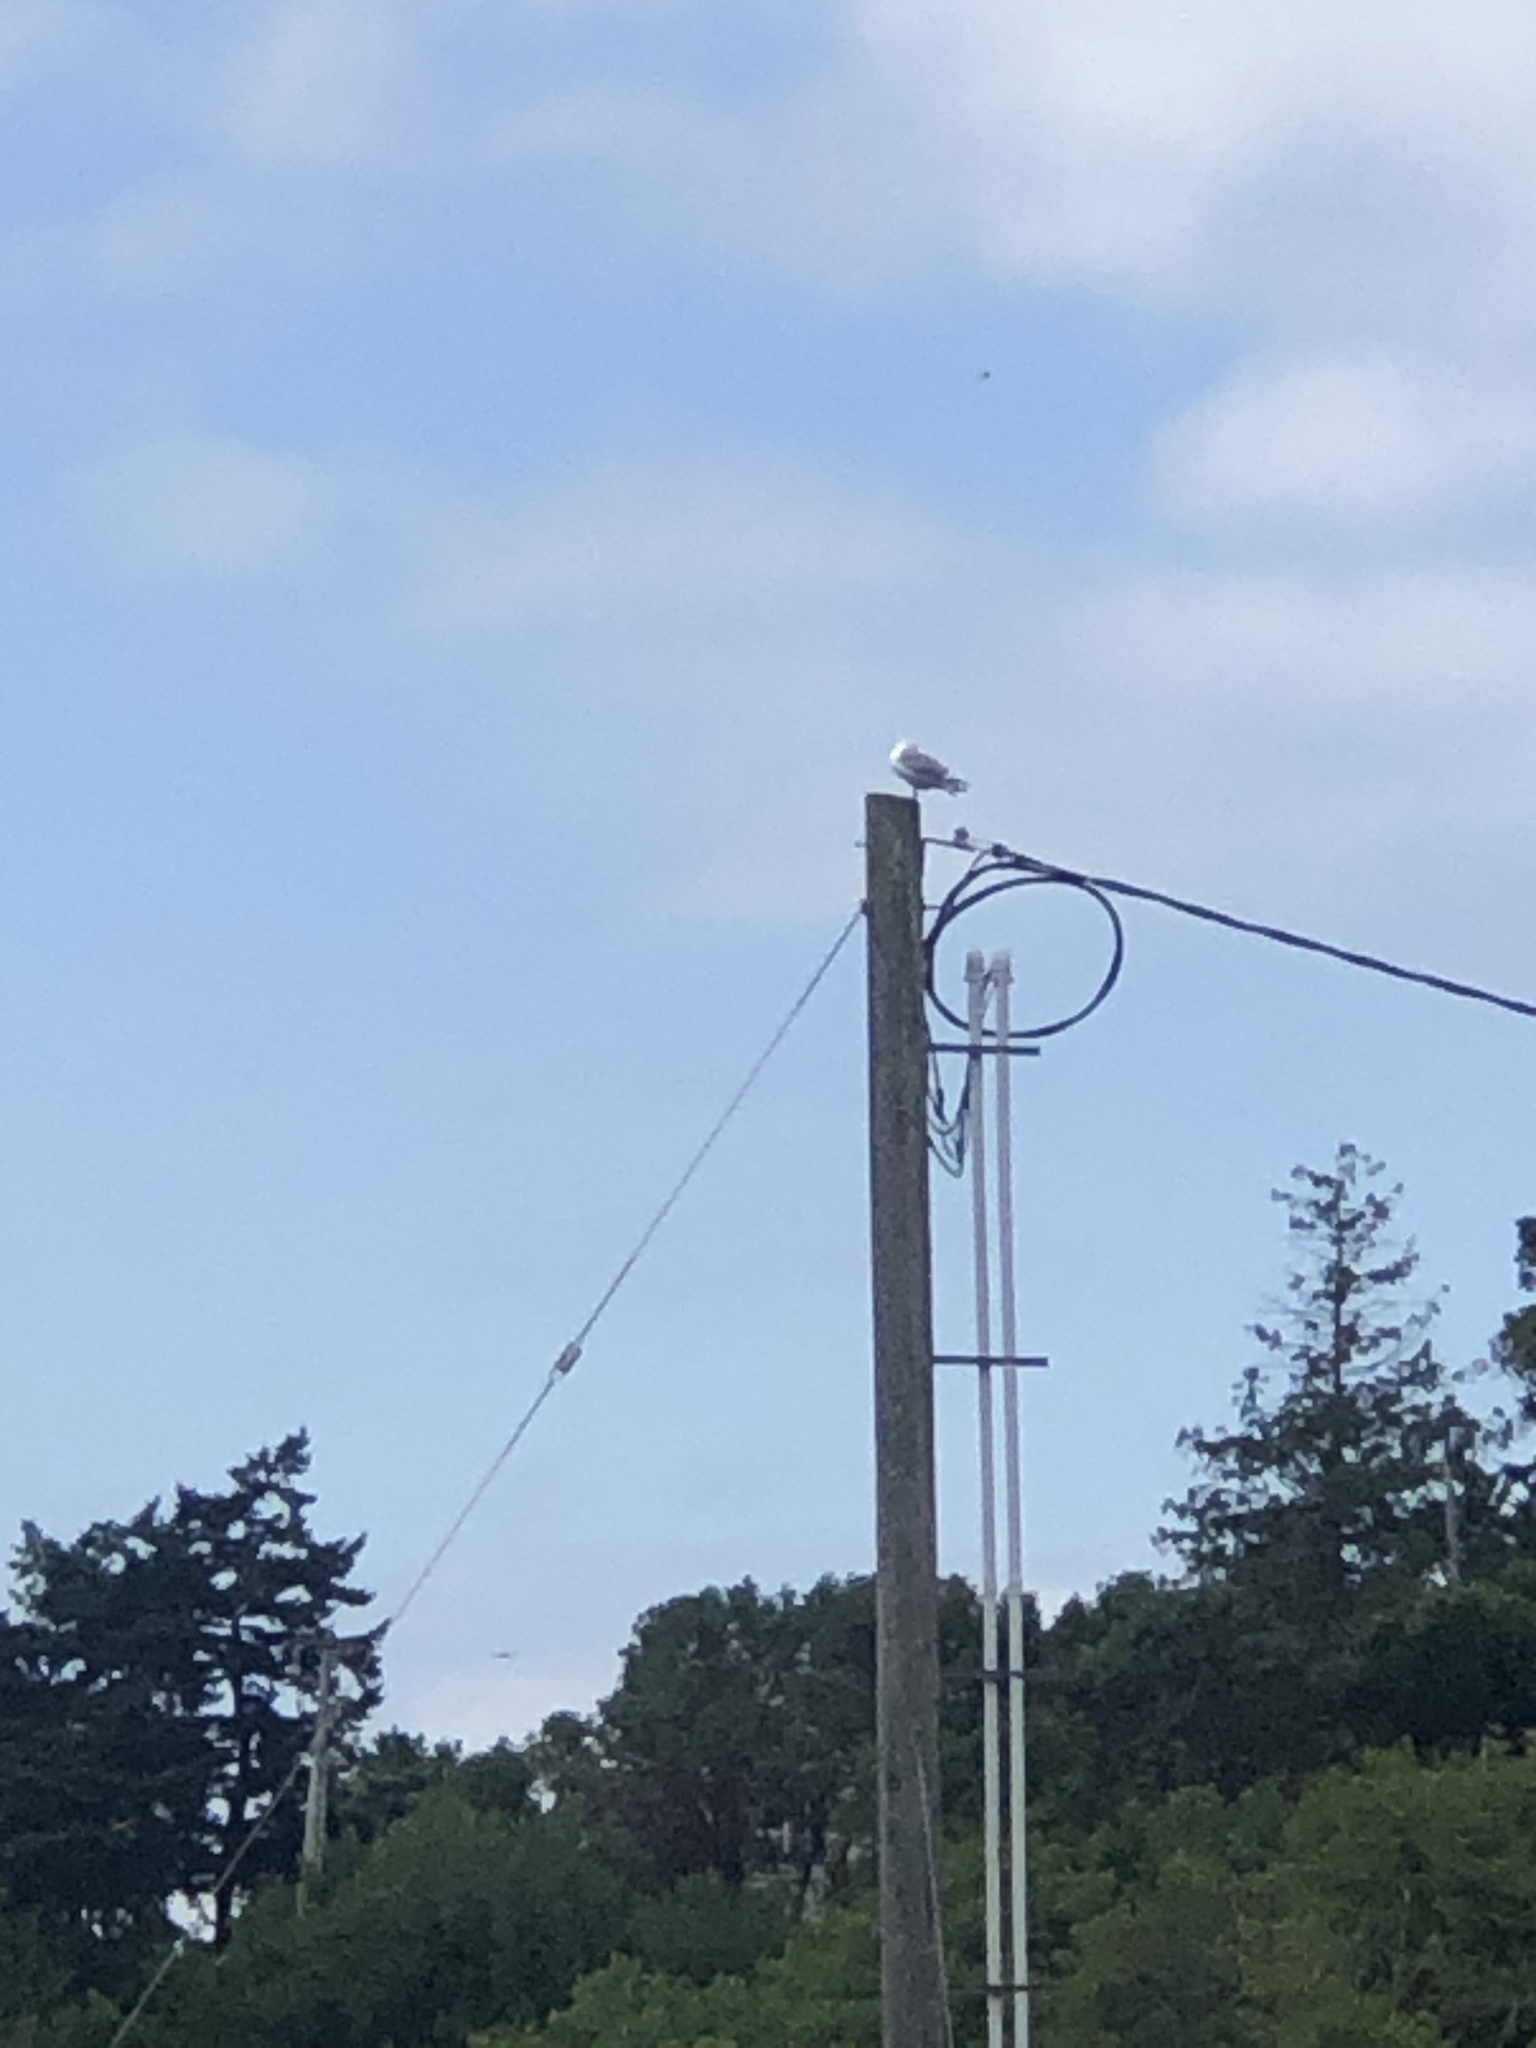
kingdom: Animalia
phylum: Chordata
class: Aves
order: Charadriiformes
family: Laridae
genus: Larus
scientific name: Larus
